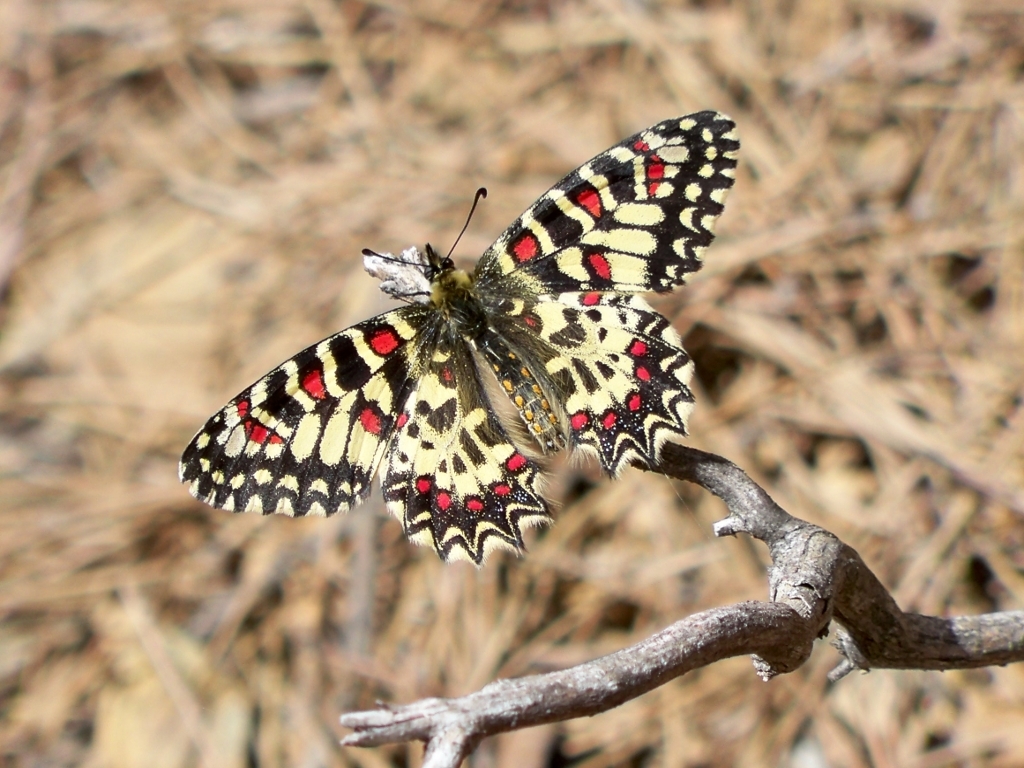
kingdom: Animalia
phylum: Arthropoda
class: Insecta
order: Lepidoptera
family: Papilionidae
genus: Zerynthia
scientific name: Zerynthia rumina
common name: Spanish festoon
